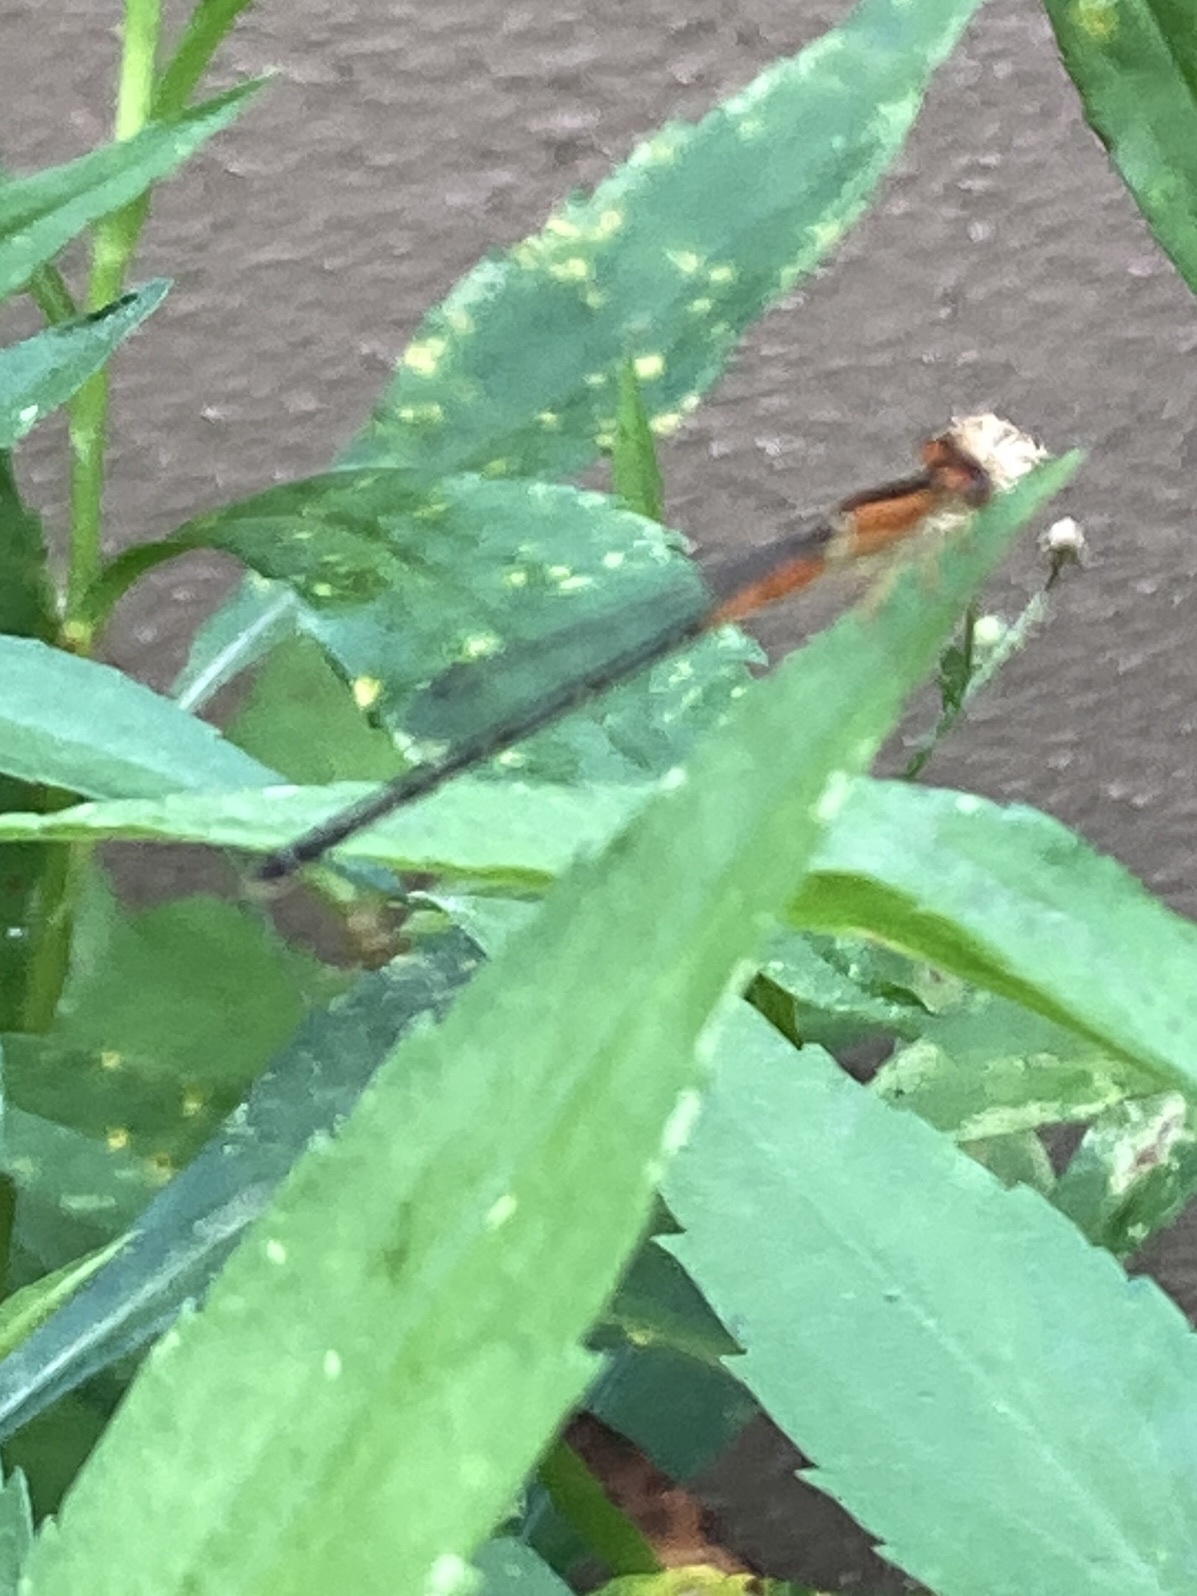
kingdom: Animalia
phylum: Arthropoda
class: Insecta
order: Odonata
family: Coenagrionidae
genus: Ischnura
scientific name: Ischnura verticalis
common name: Eastern forktail
